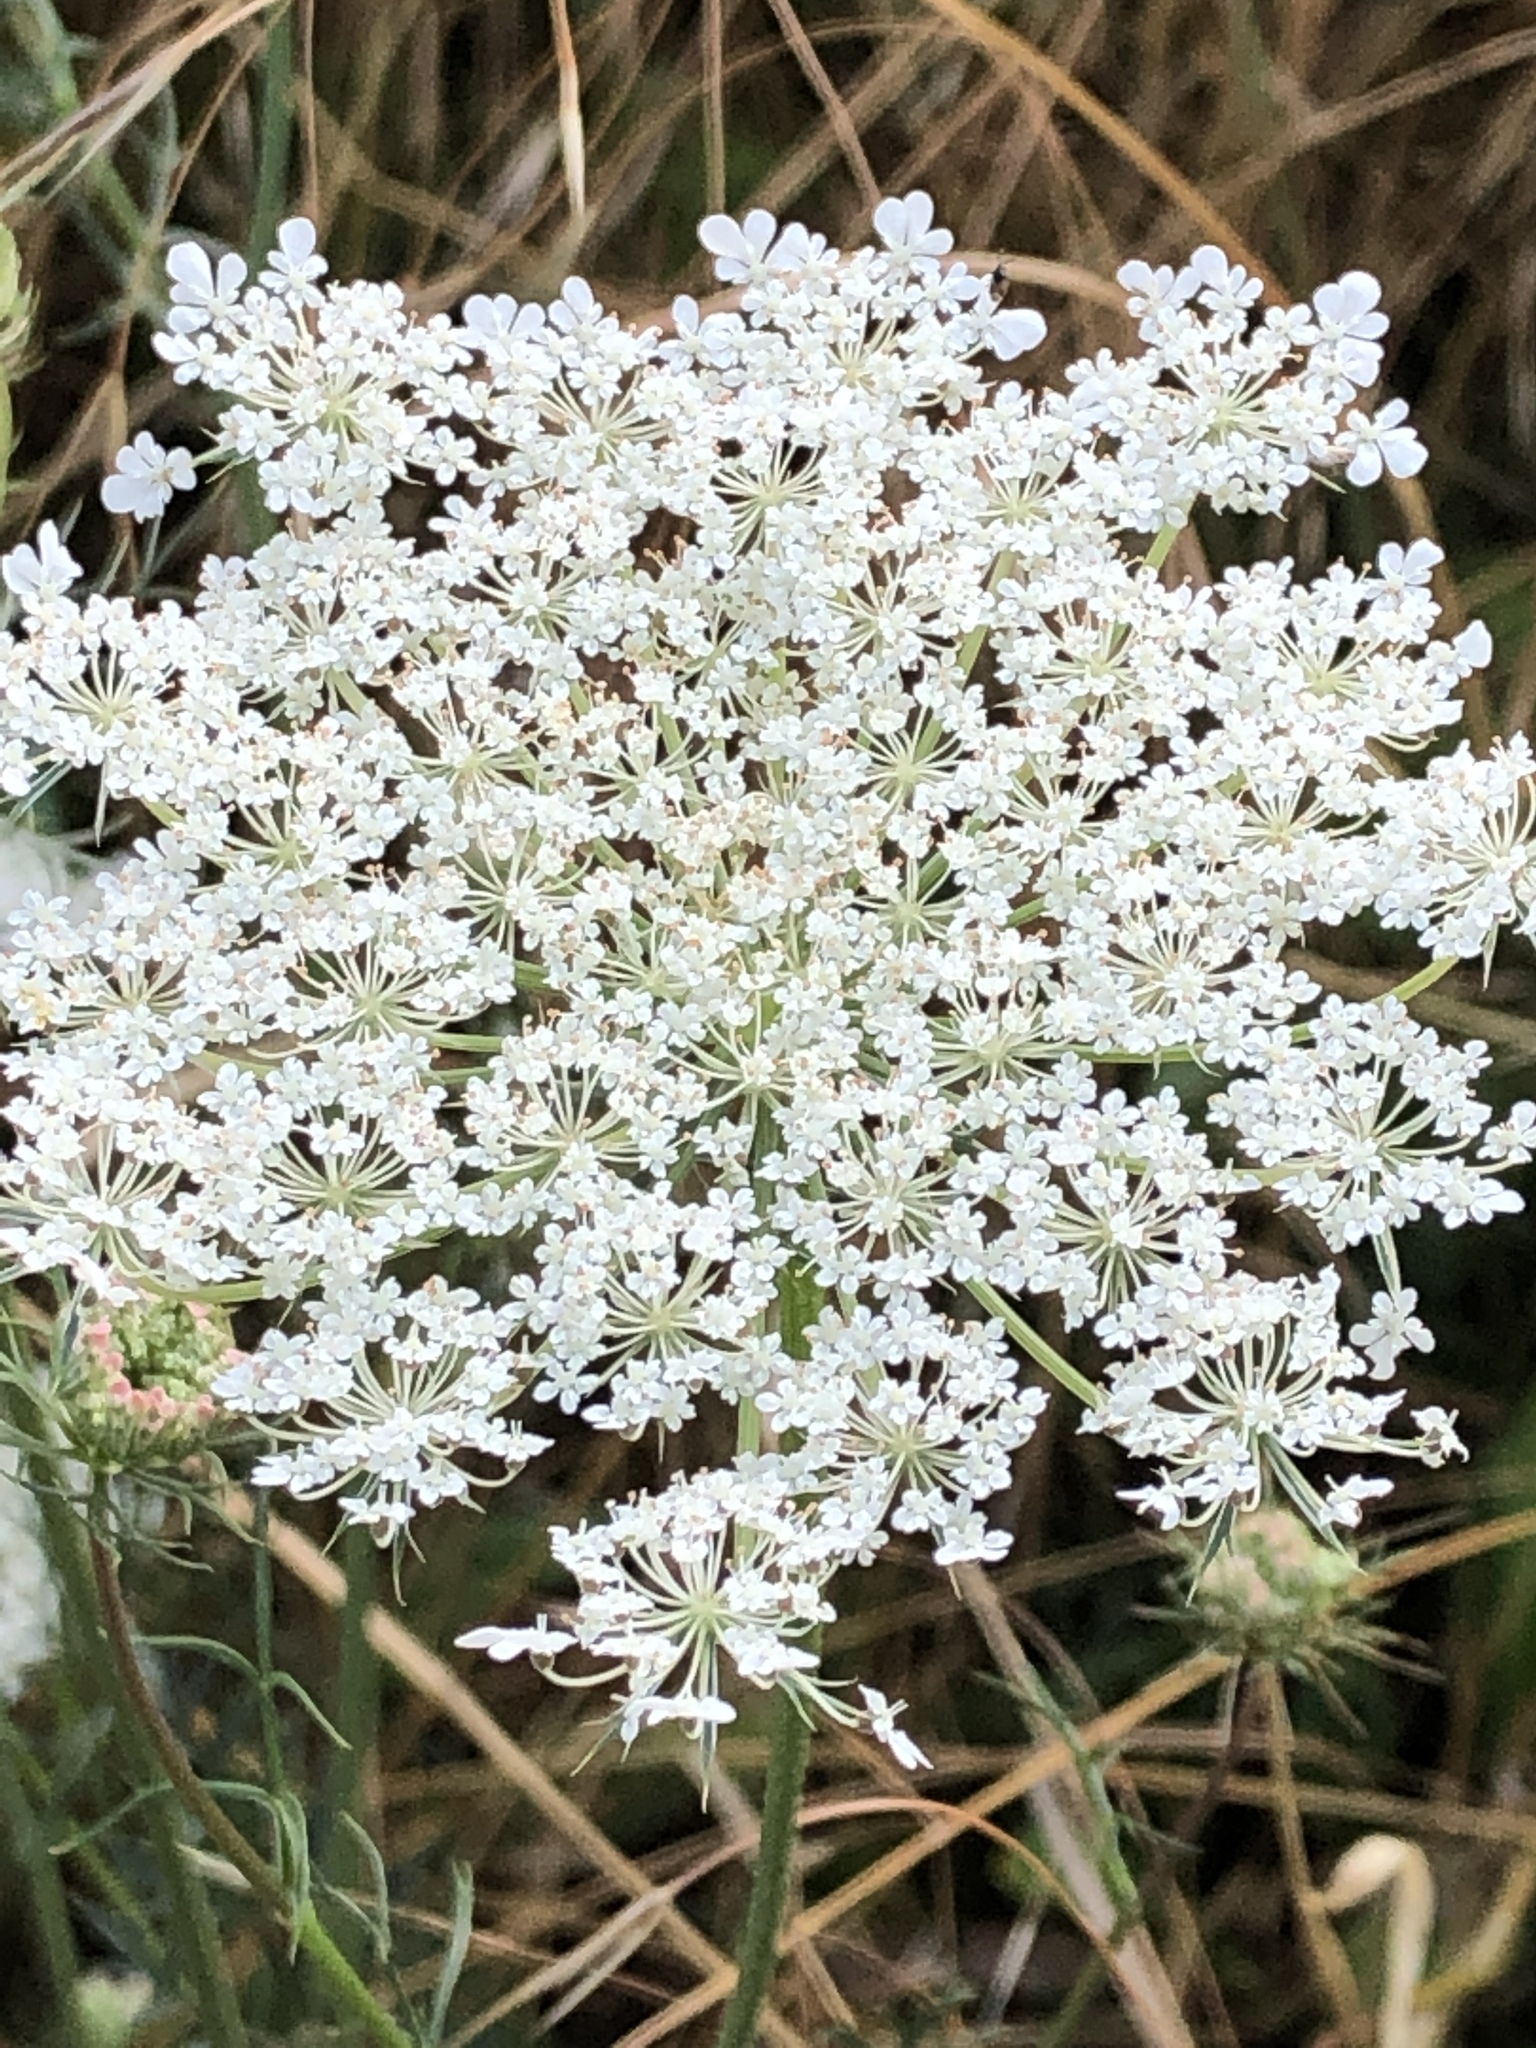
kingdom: Plantae
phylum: Tracheophyta
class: Magnoliopsida
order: Apiales
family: Apiaceae
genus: Daucus
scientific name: Daucus carota
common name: Wild carrot
